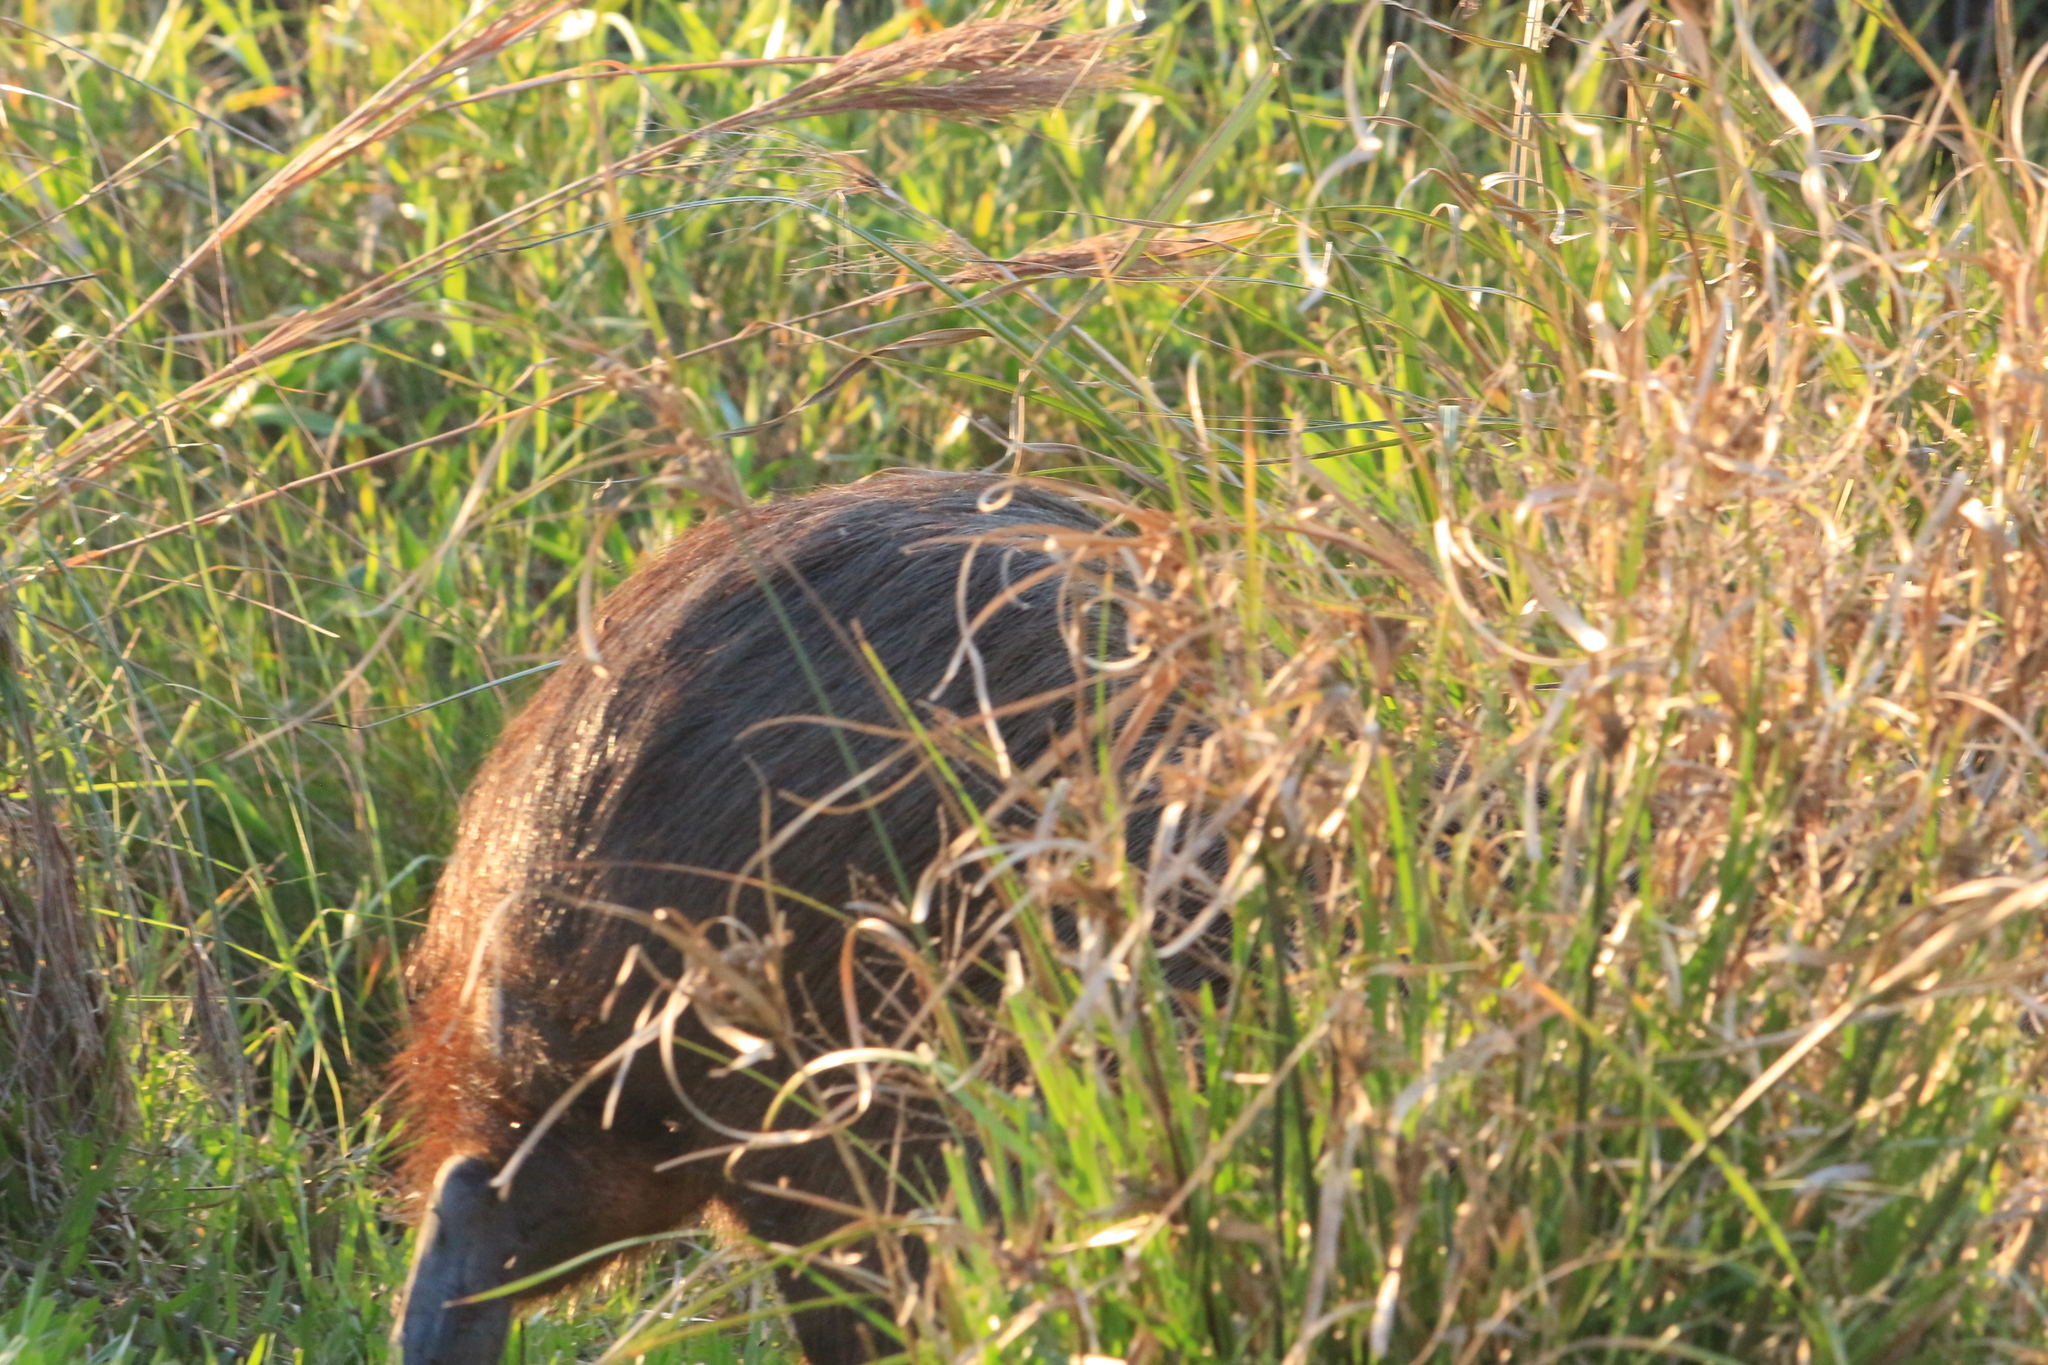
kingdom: Animalia
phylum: Chordata
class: Mammalia
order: Rodentia
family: Caviidae
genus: Hydrochoerus
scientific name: Hydrochoerus hydrochaeris
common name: Capybara
